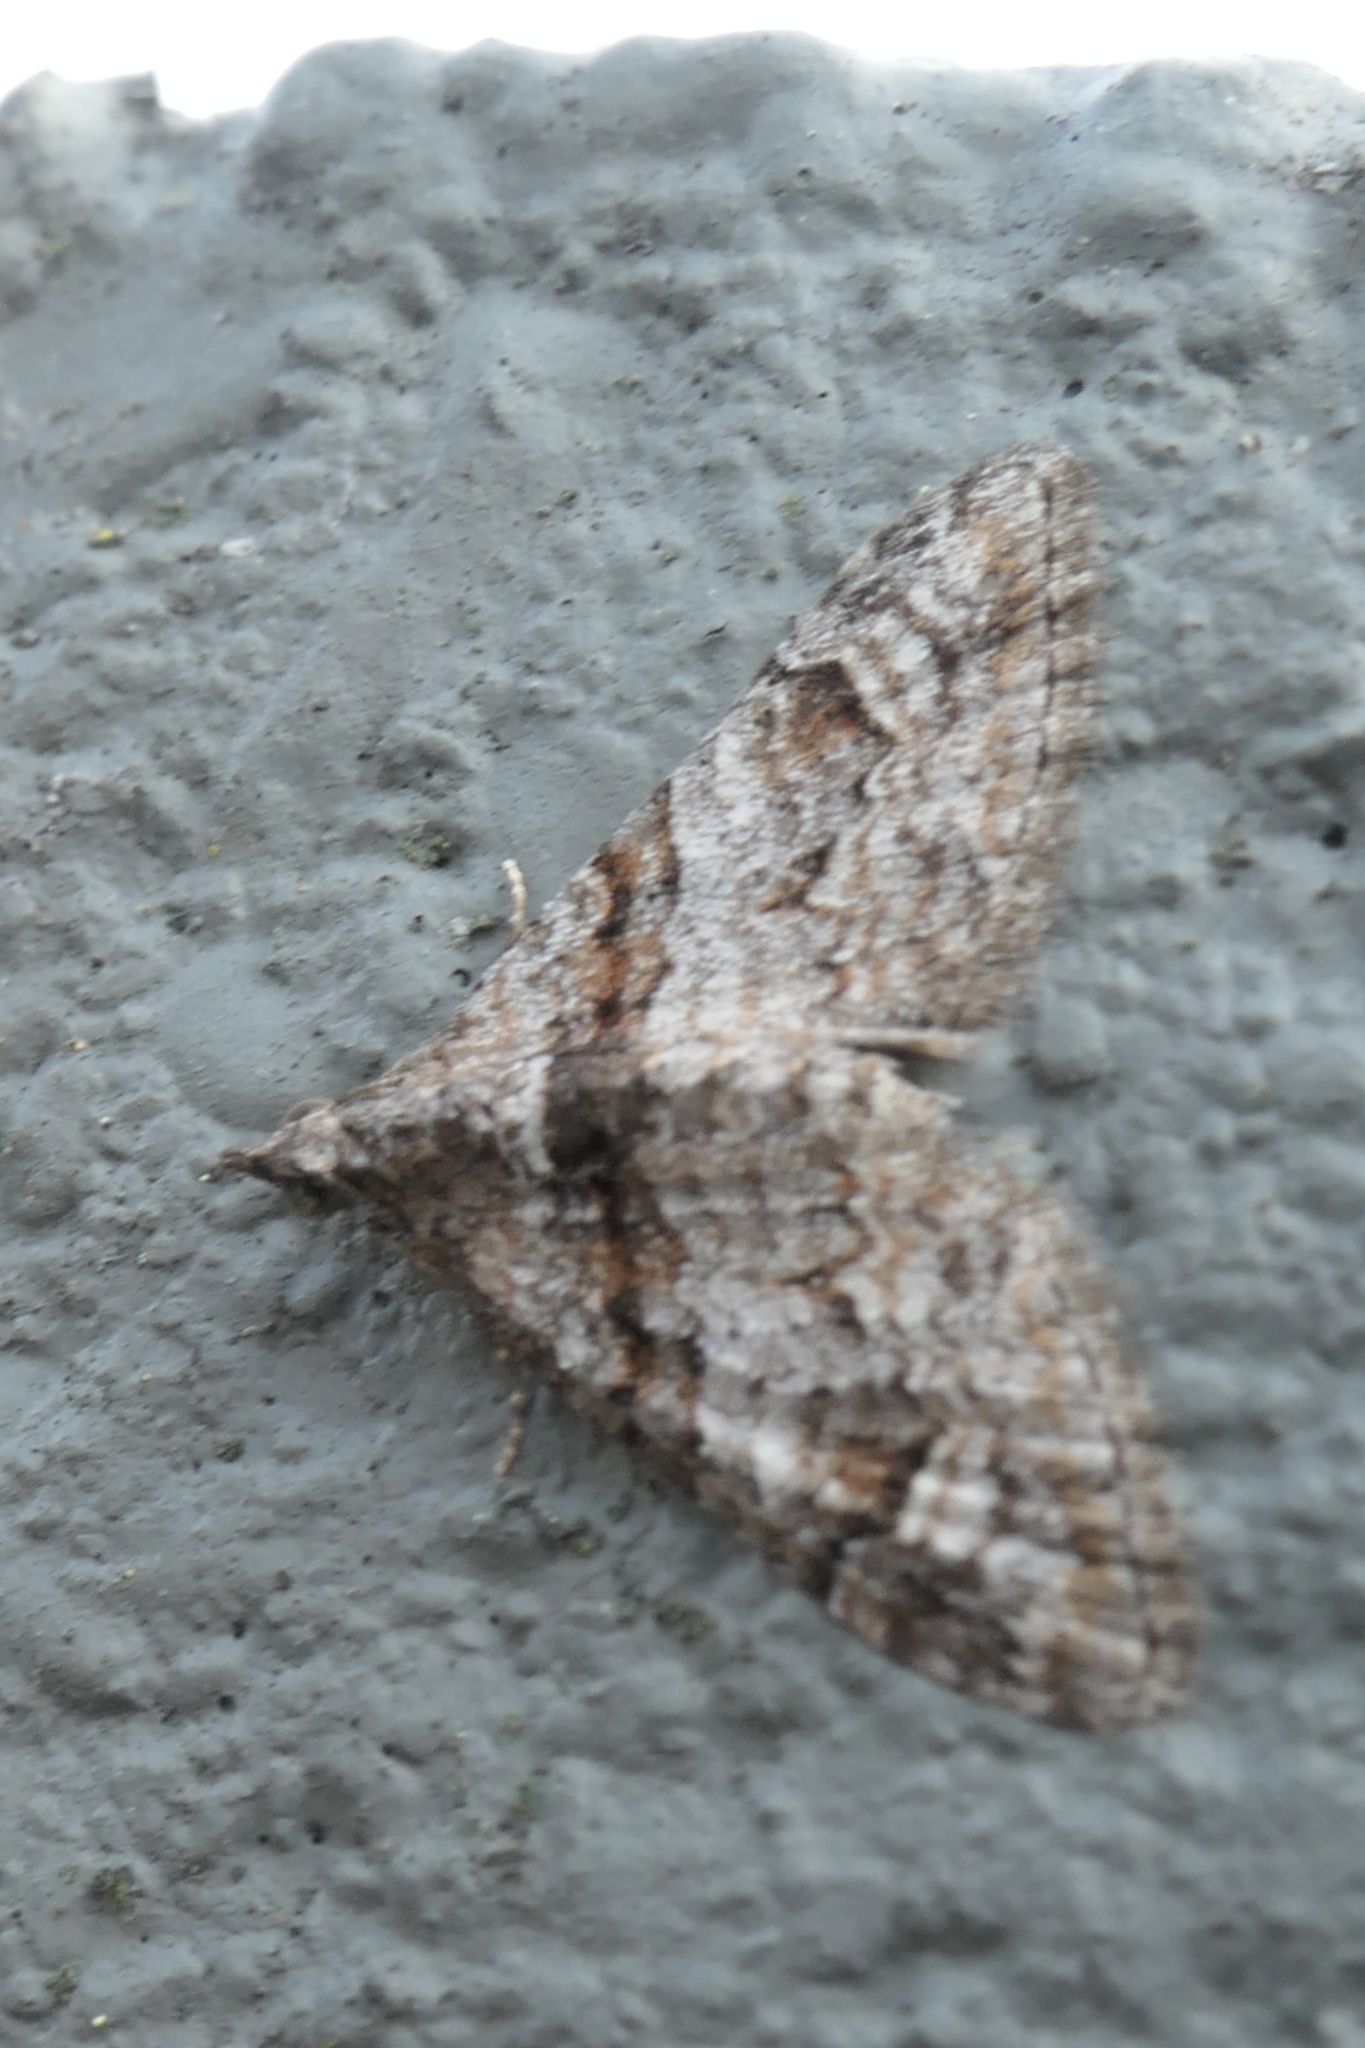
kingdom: Animalia
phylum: Arthropoda
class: Insecta
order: Lepidoptera
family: Geometridae
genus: Phrissogonus
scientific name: Phrissogonus laticostata
